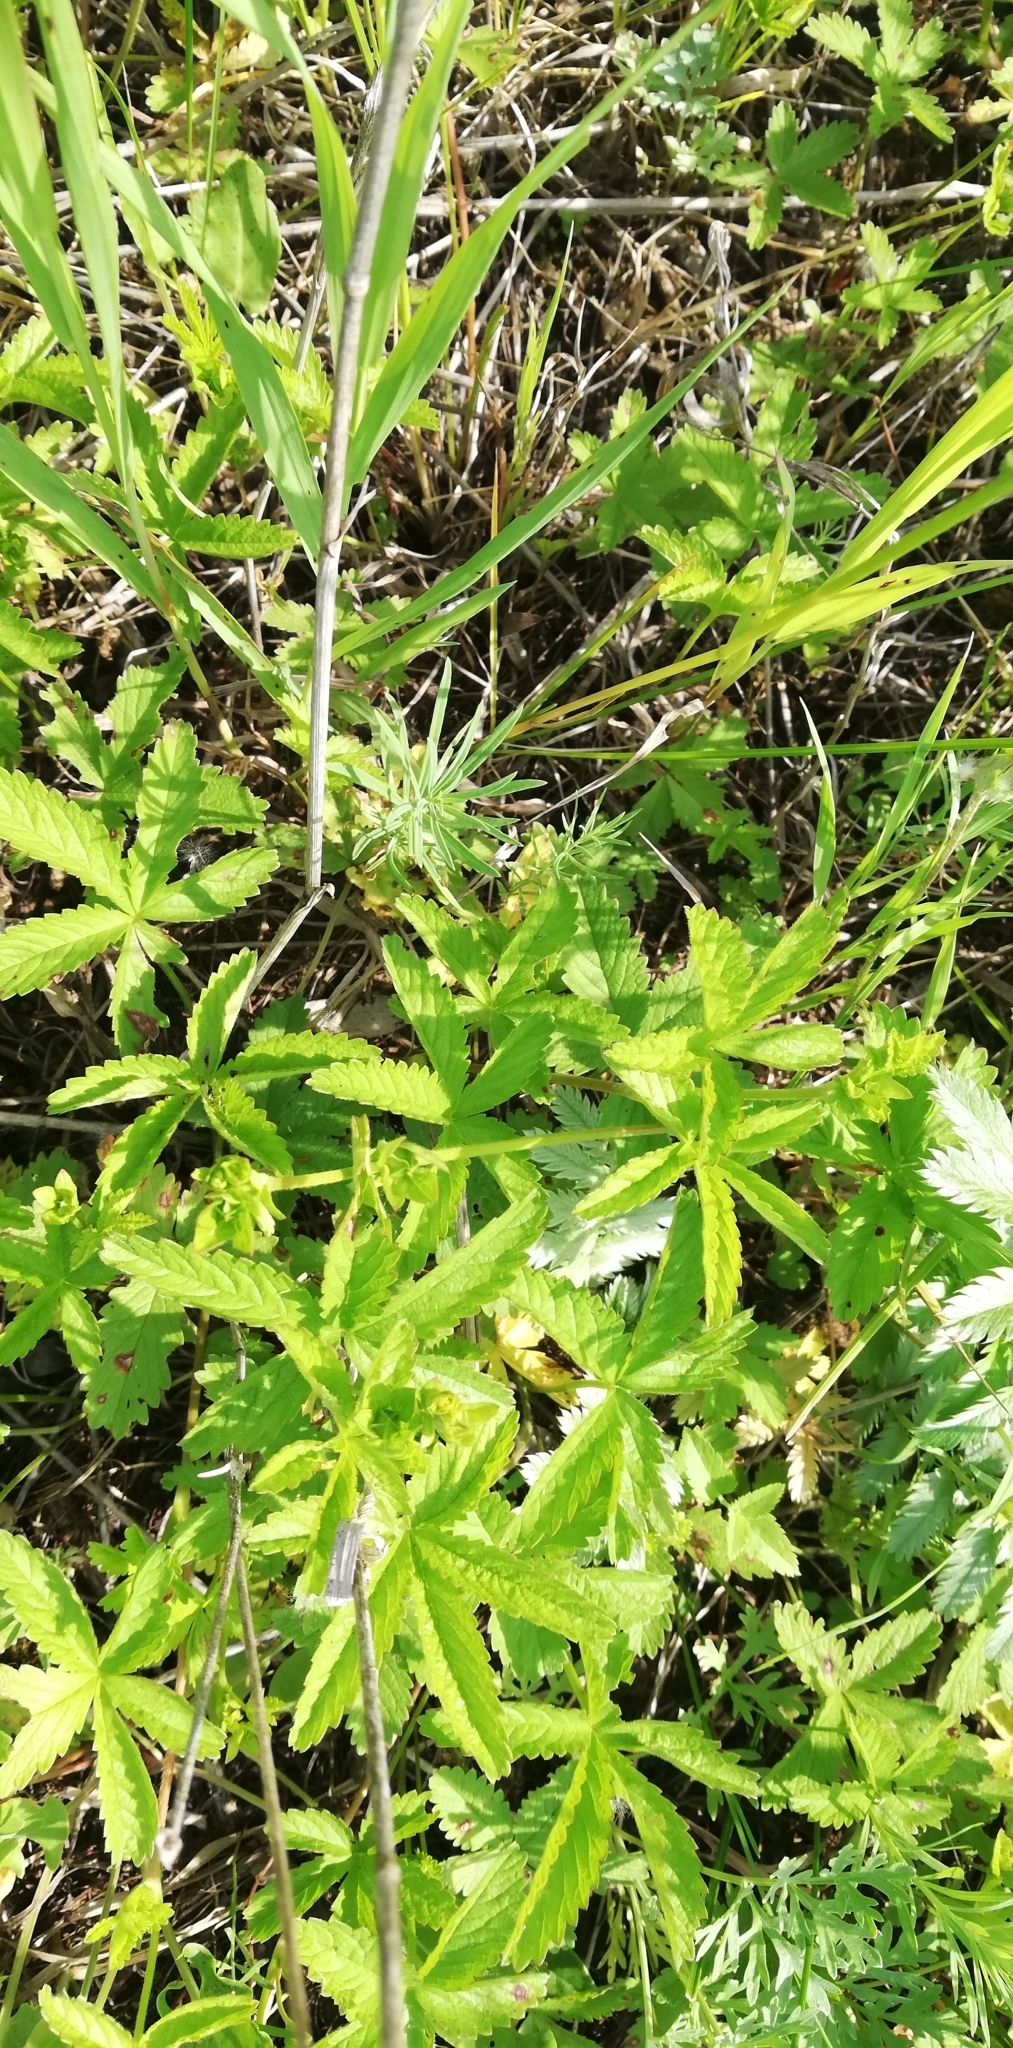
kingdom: Plantae
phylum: Tracheophyta
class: Magnoliopsida
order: Rosales
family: Rosaceae
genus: Potentilla
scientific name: Potentilla reptans
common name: Creeping cinquefoil
